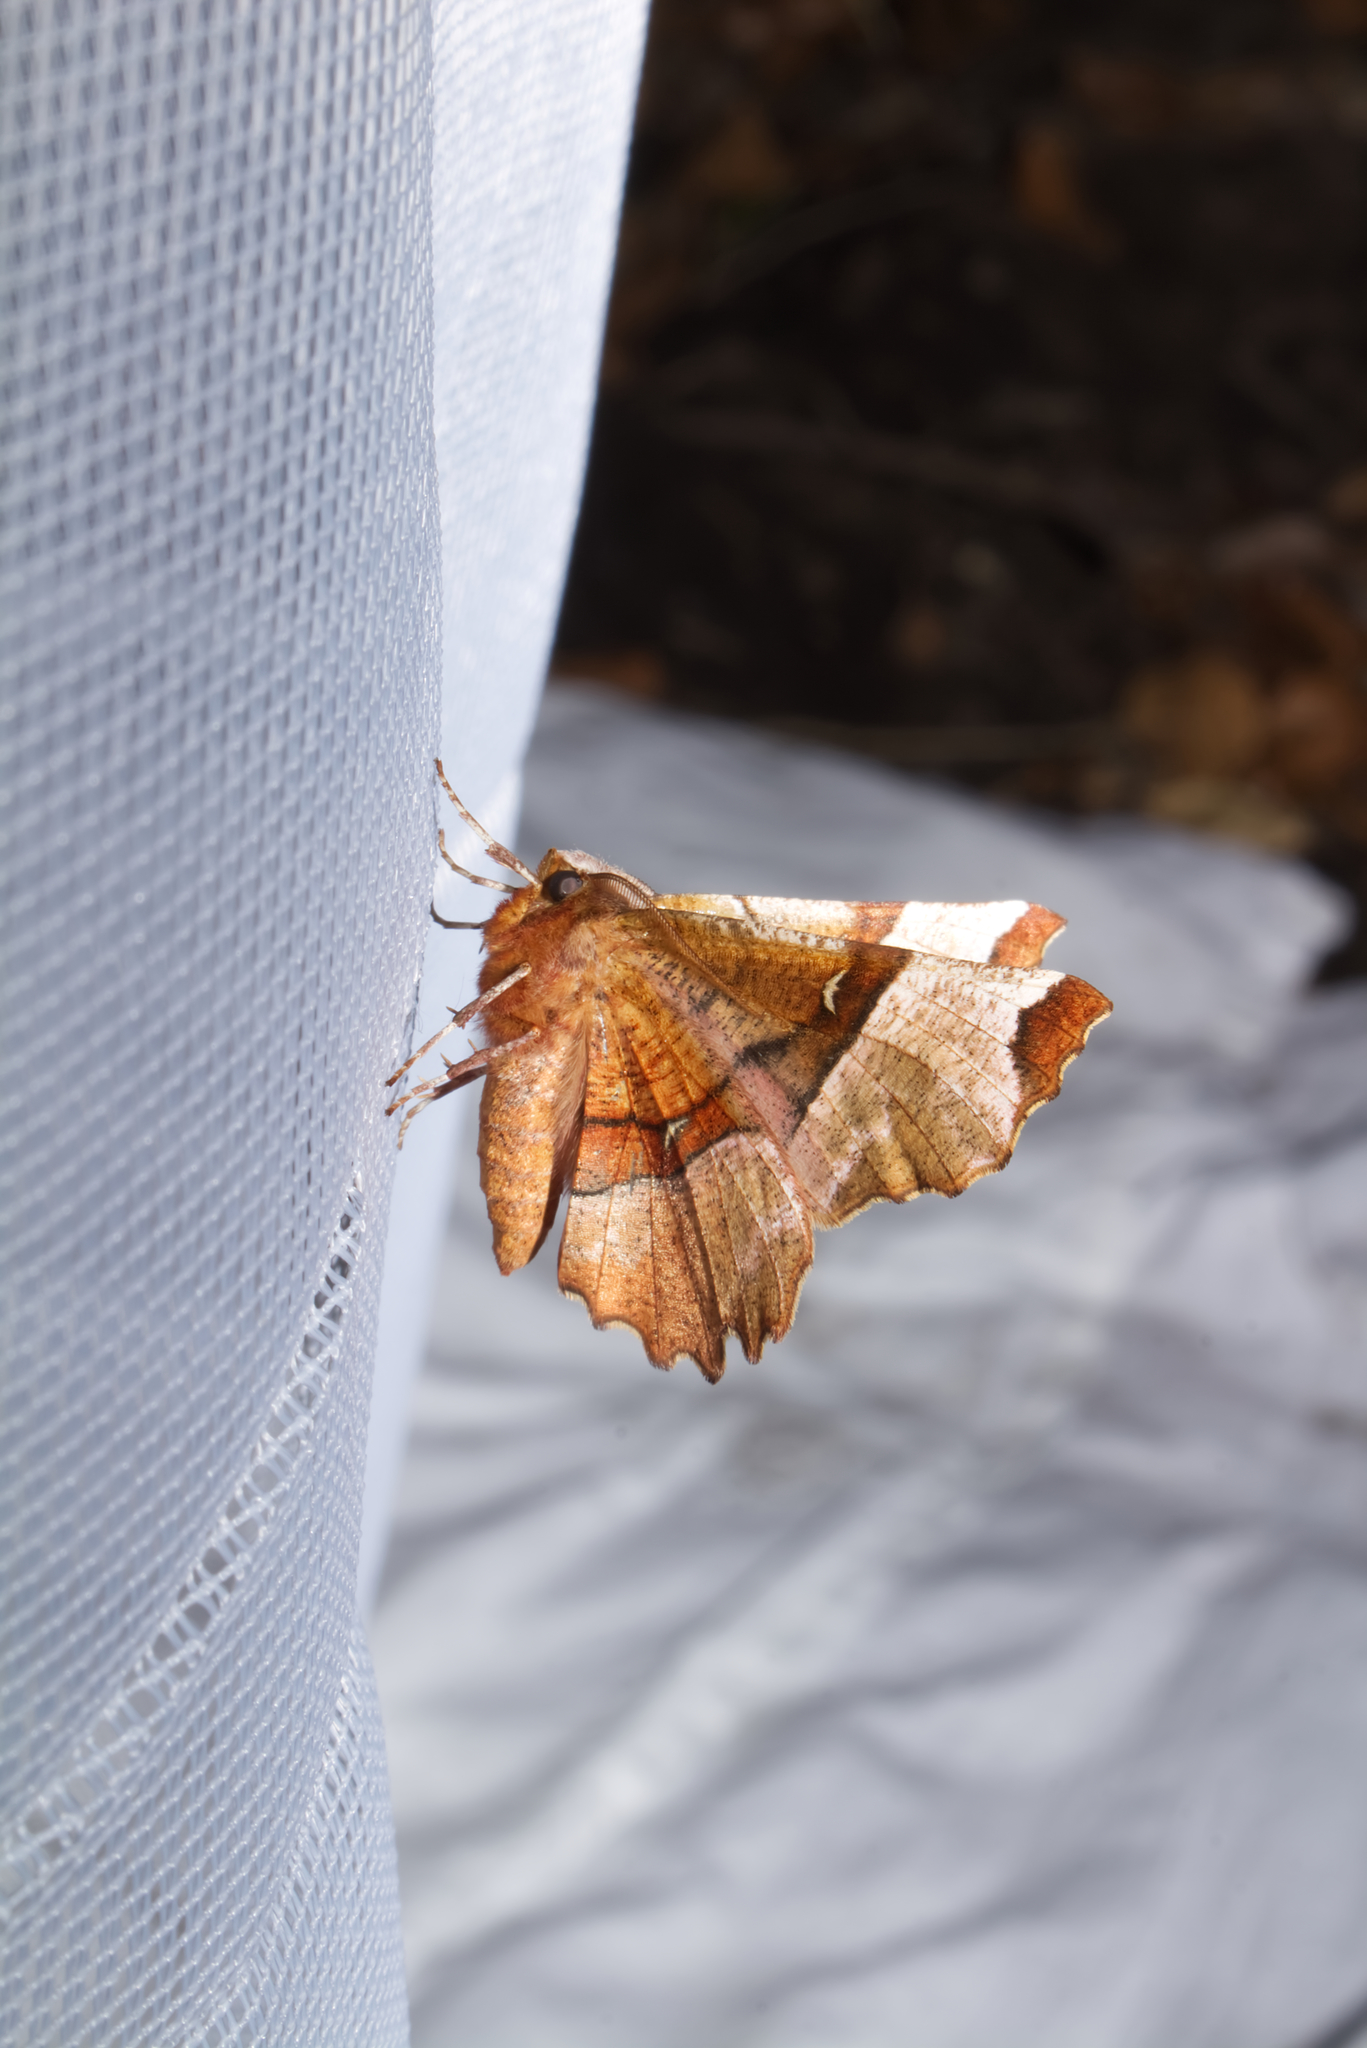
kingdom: Animalia
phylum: Arthropoda
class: Insecta
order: Lepidoptera
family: Geometridae
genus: Selenia
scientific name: Selenia tetralunaria
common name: Purple thorn
